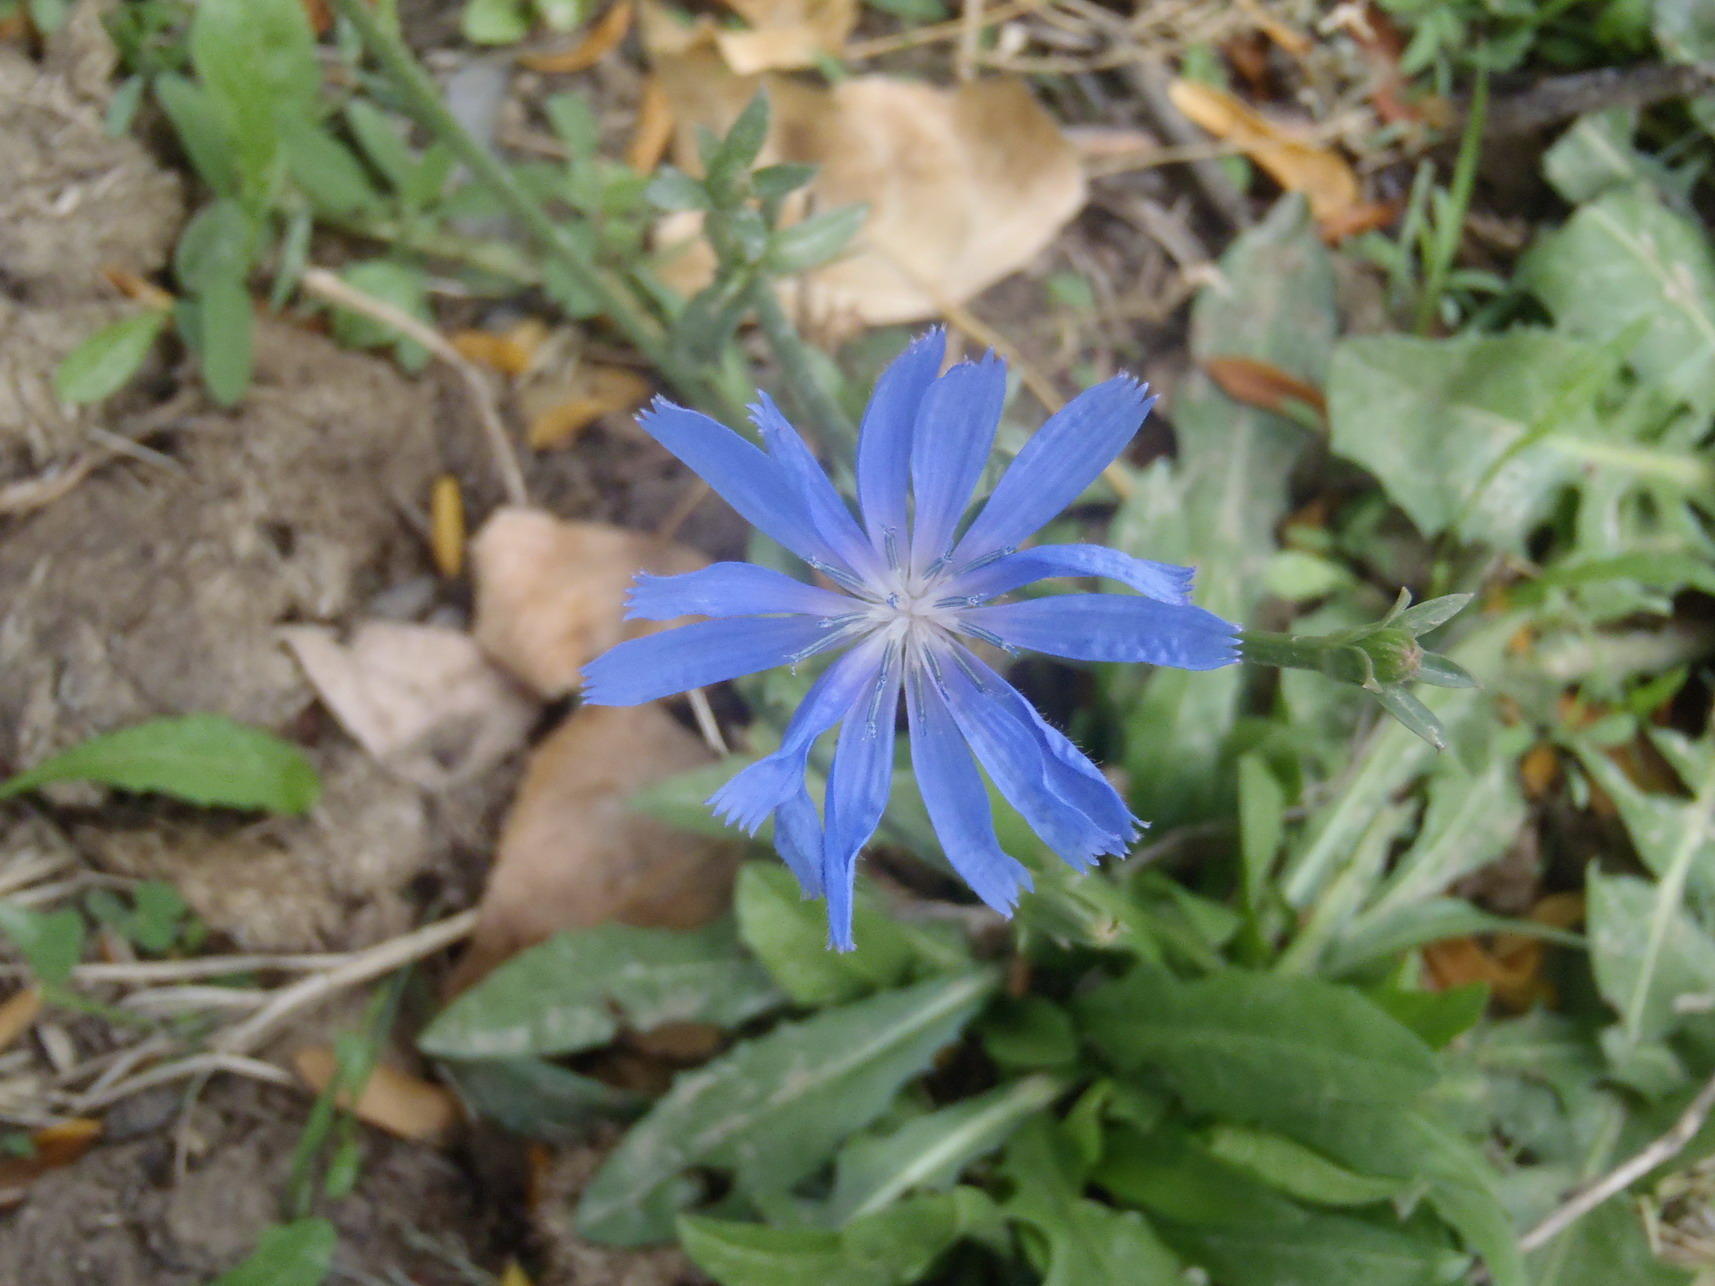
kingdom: Plantae
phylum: Tracheophyta
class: Magnoliopsida
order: Asterales
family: Asteraceae
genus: Cichorium
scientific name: Cichorium intybus
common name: Chicory
